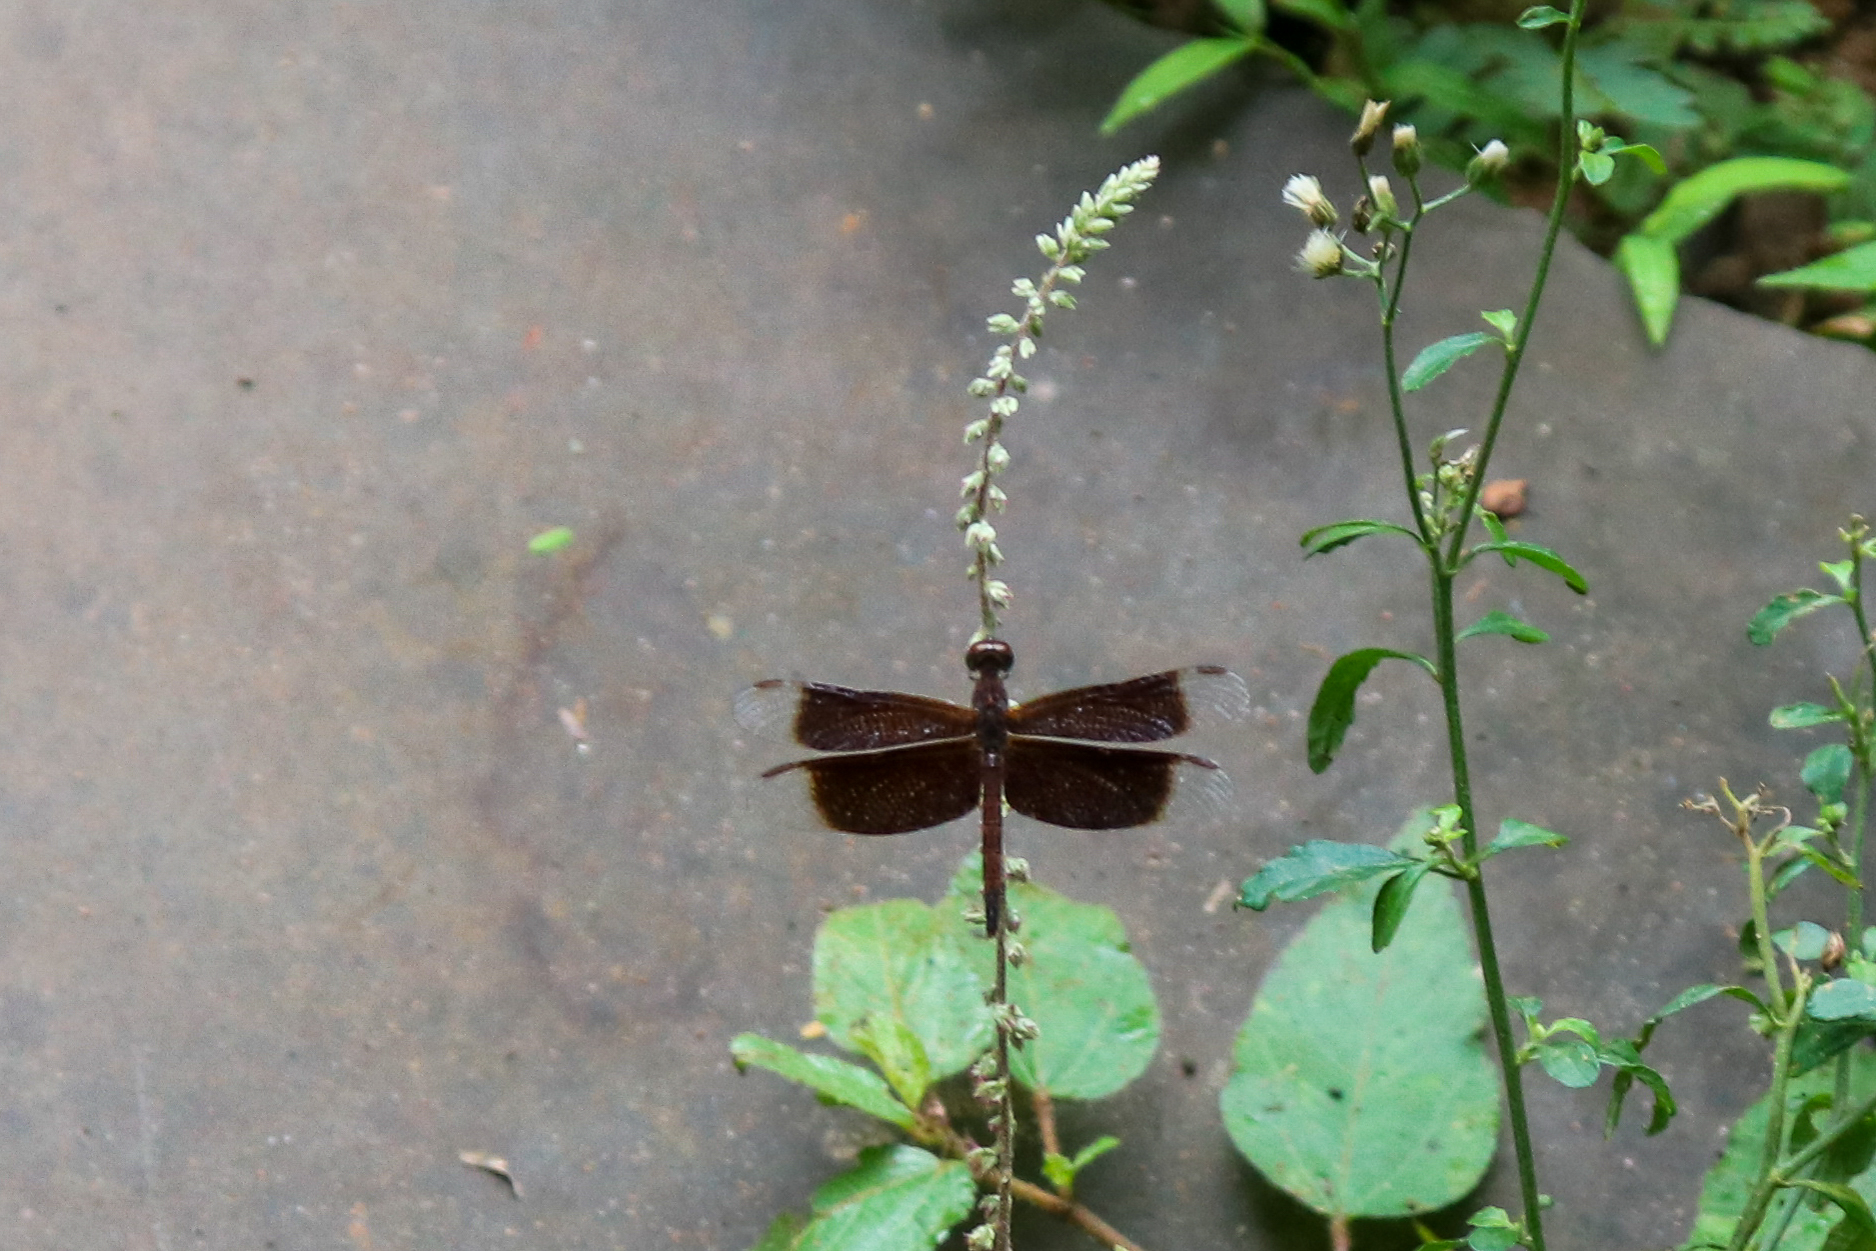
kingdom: Animalia
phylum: Arthropoda
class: Insecta
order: Odonata
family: Libellulidae
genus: Neurothemis
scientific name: Neurothemis fluctuans
